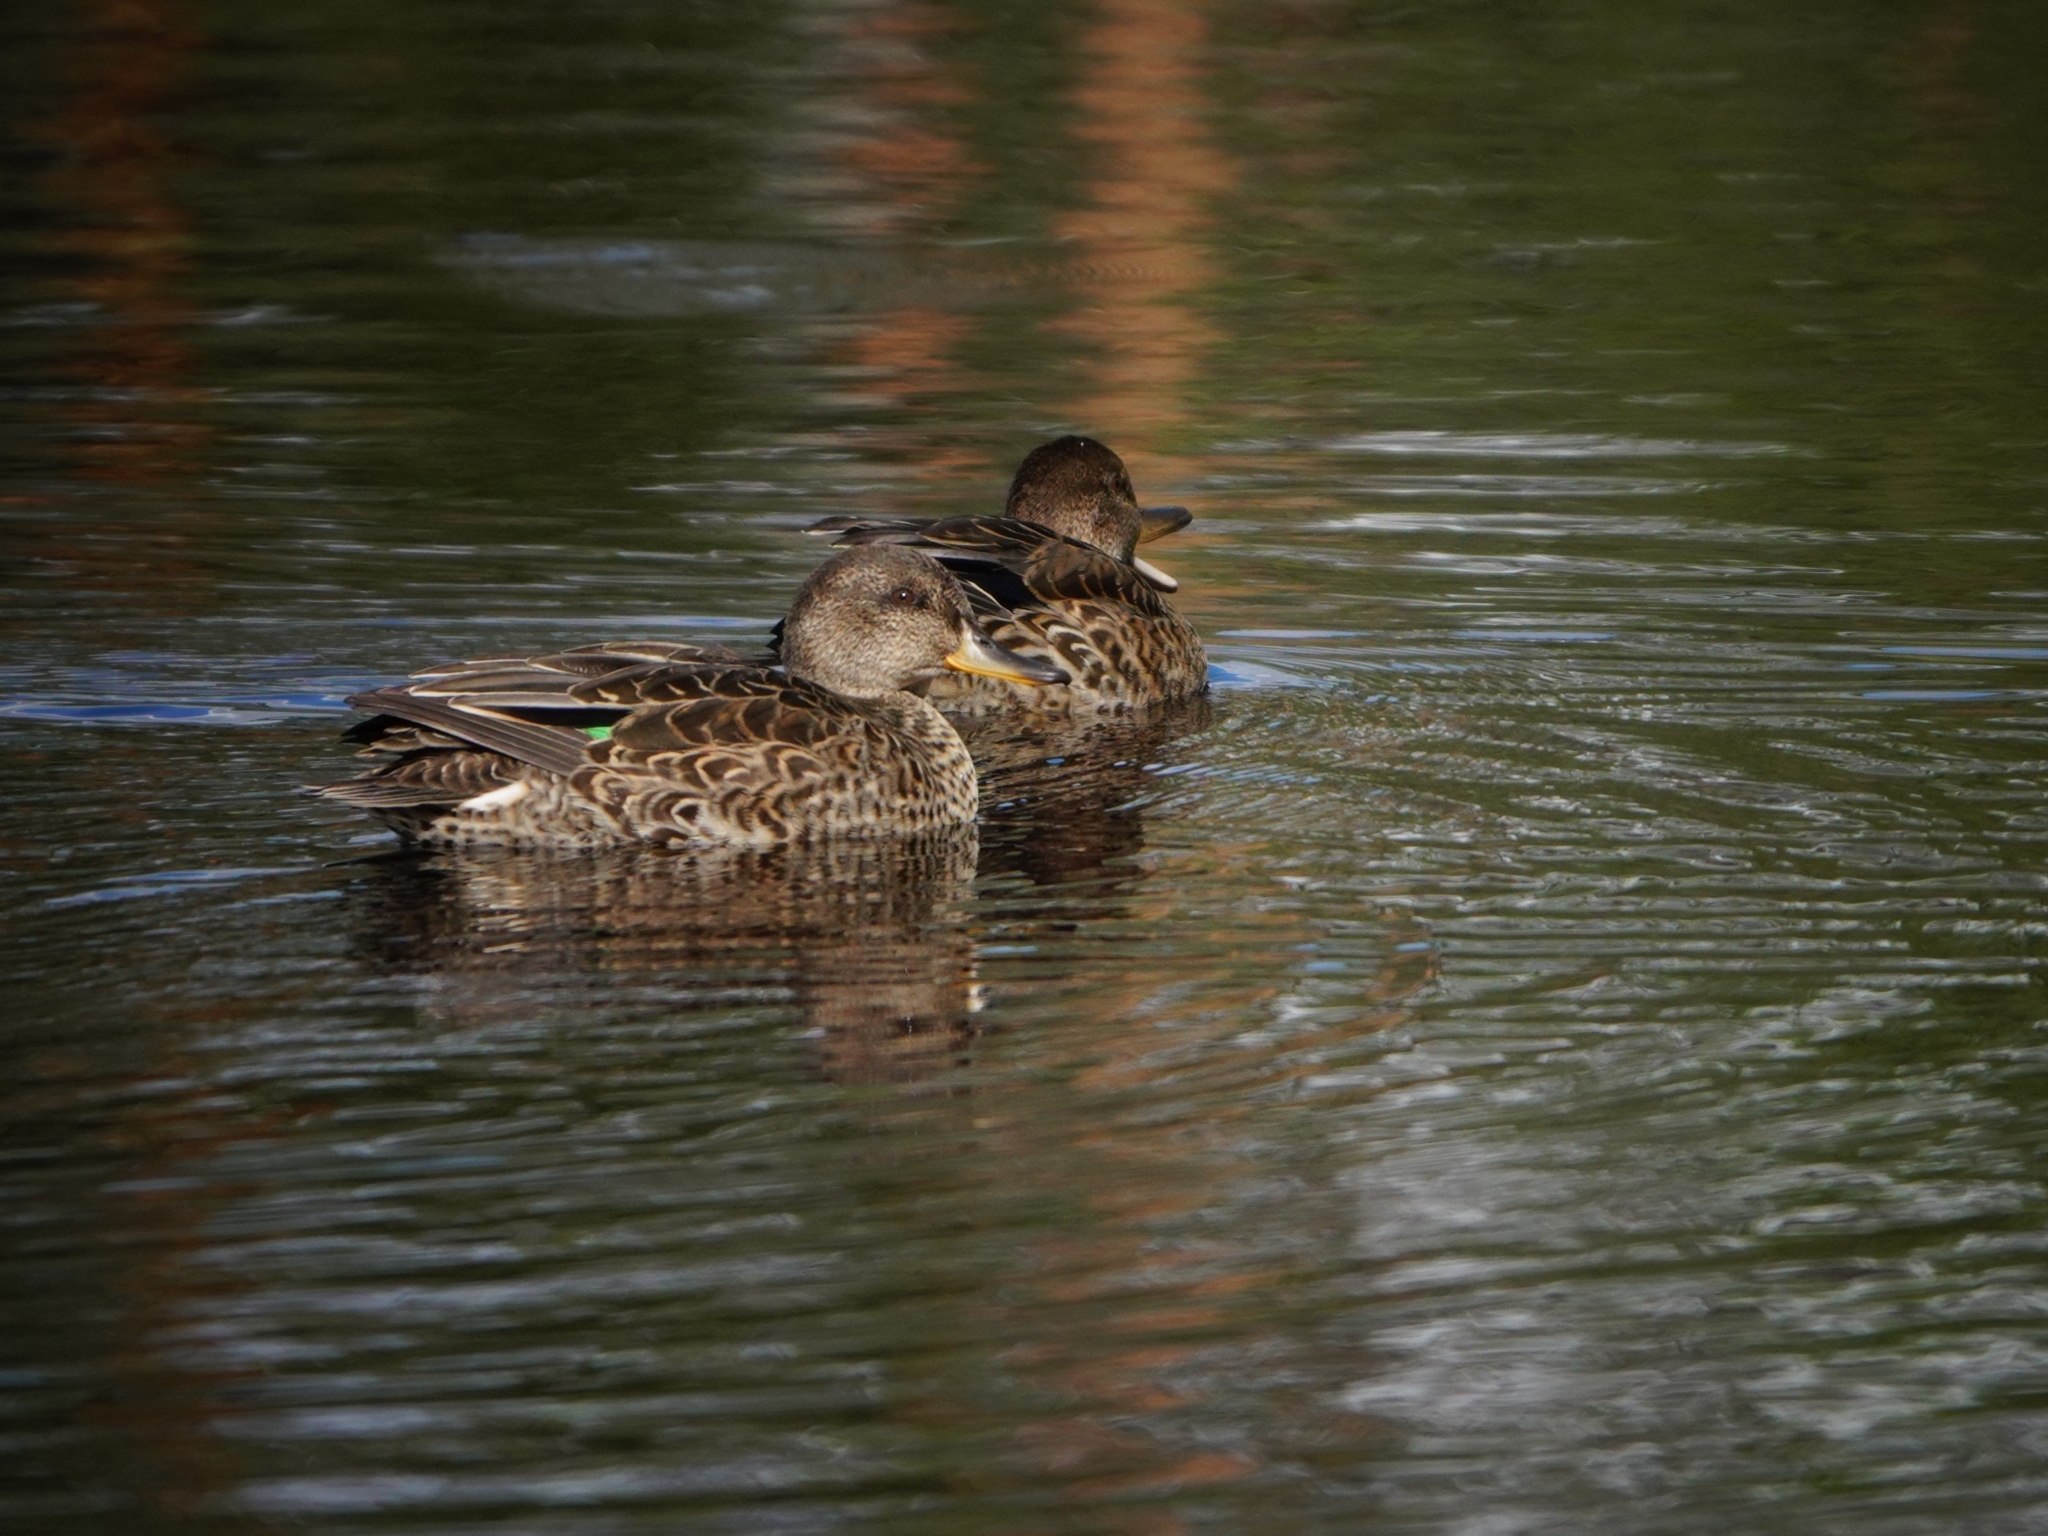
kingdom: Animalia
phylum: Chordata
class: Aves
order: Anseriformes
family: Anatidae
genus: Anas
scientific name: Anas crecca
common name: Eurasian teal
